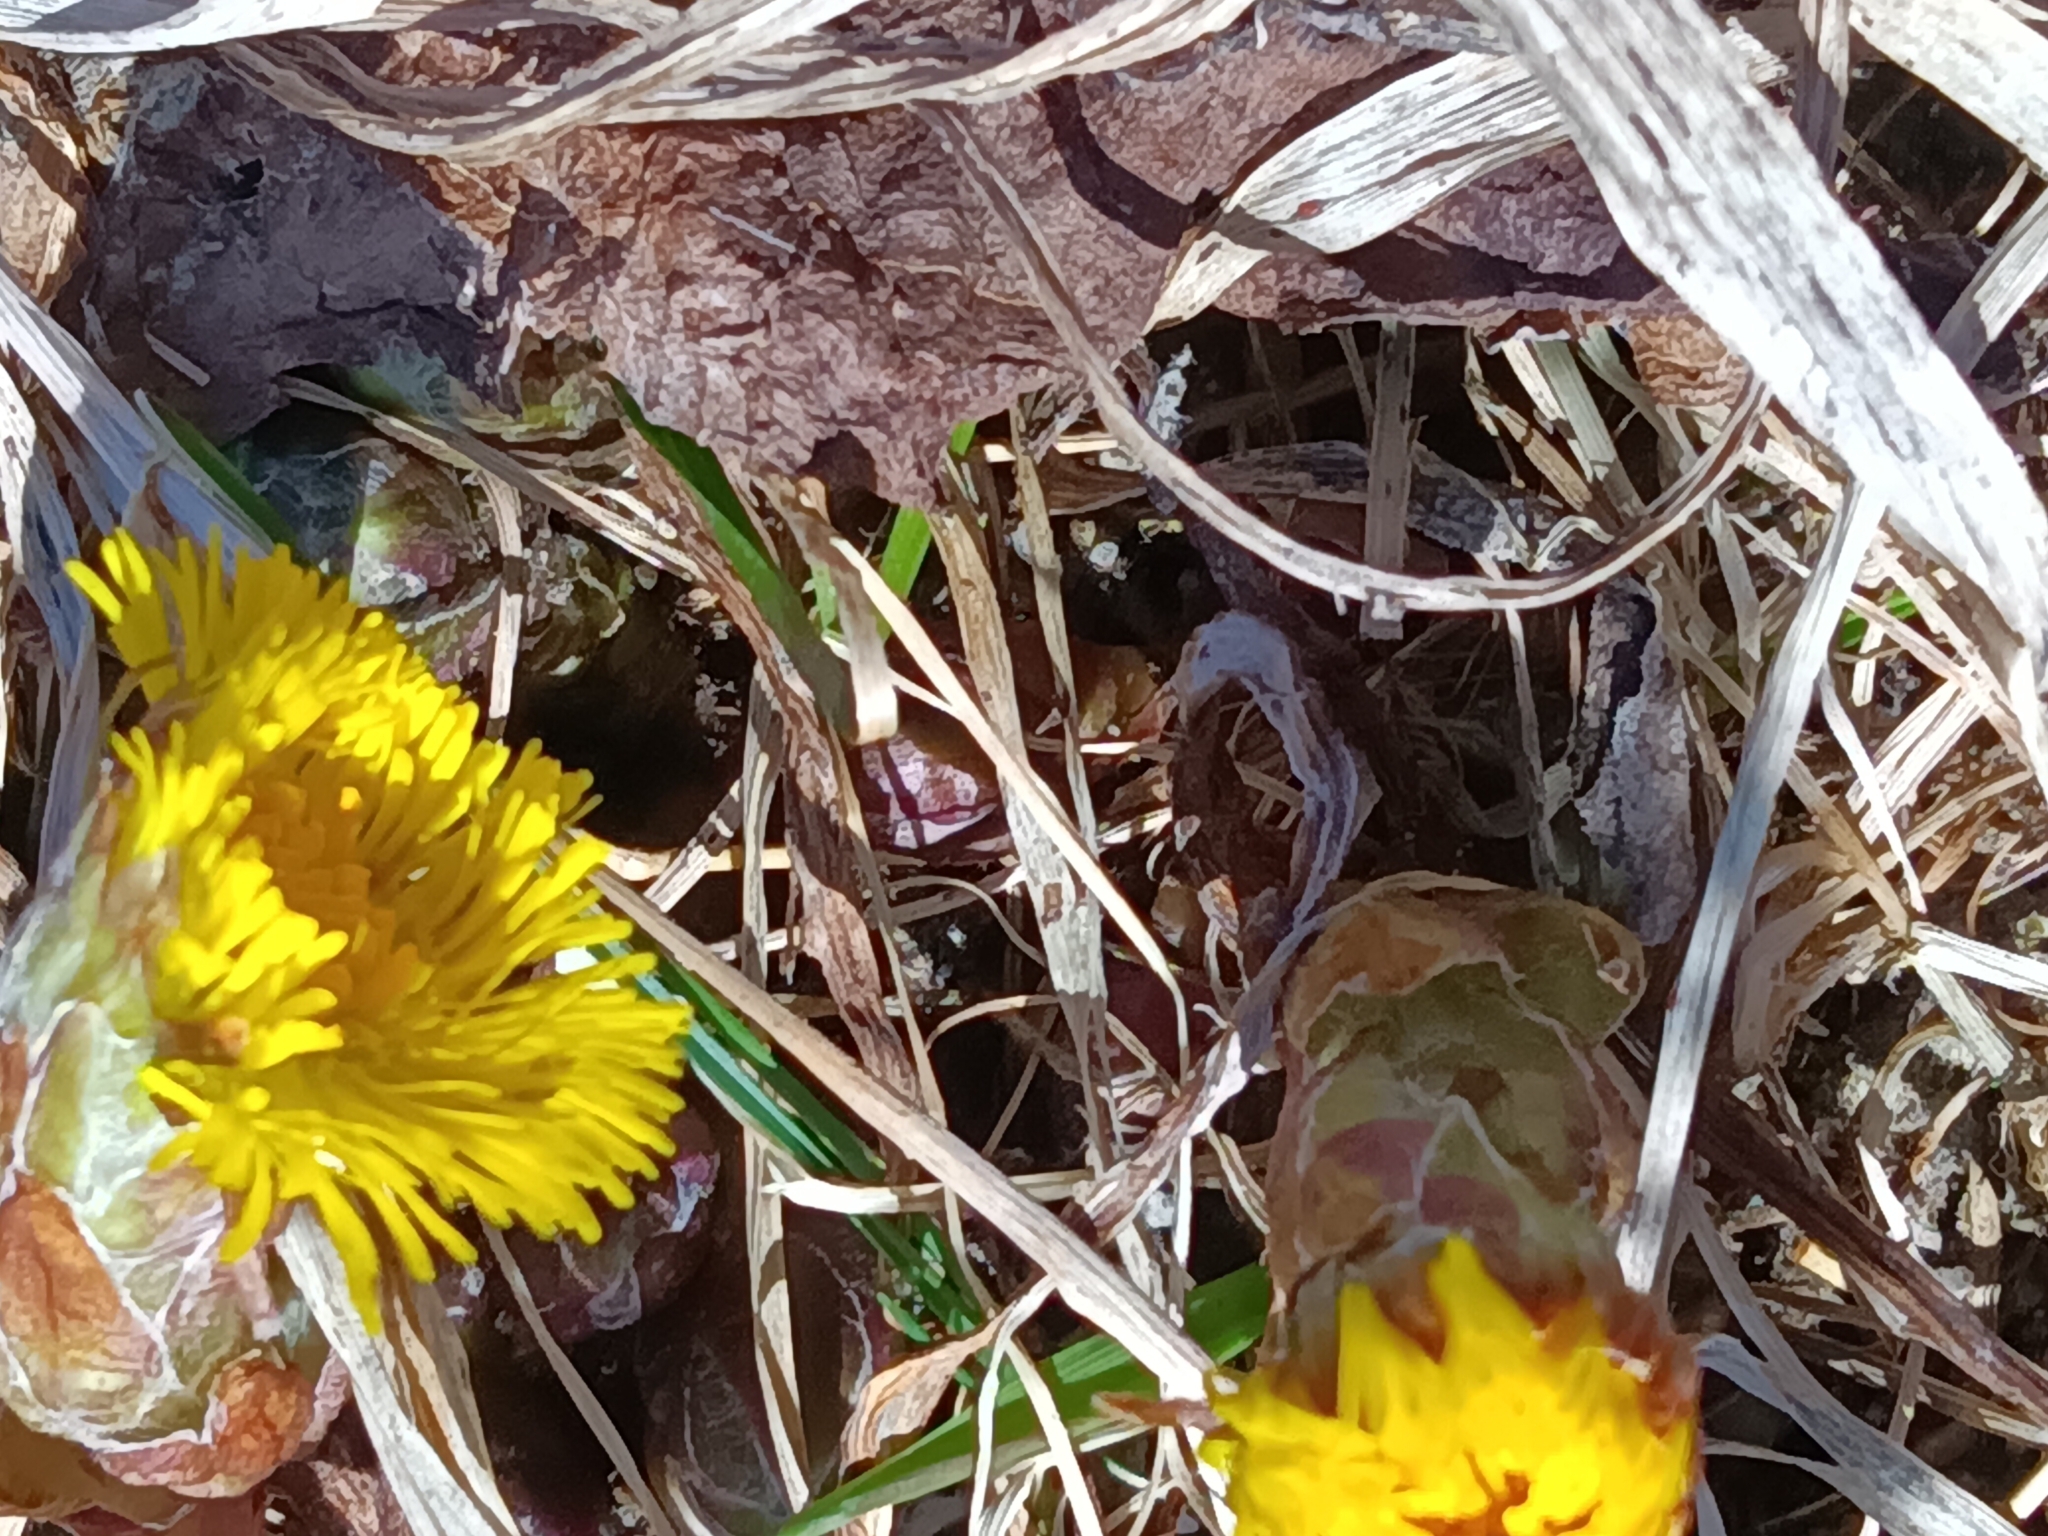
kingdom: Plantae
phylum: Tracheophyta
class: Magnoliopsida
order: Asterales
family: Asteraceae
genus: Tussilago
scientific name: Tussilago farfara
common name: Coltsfoot
